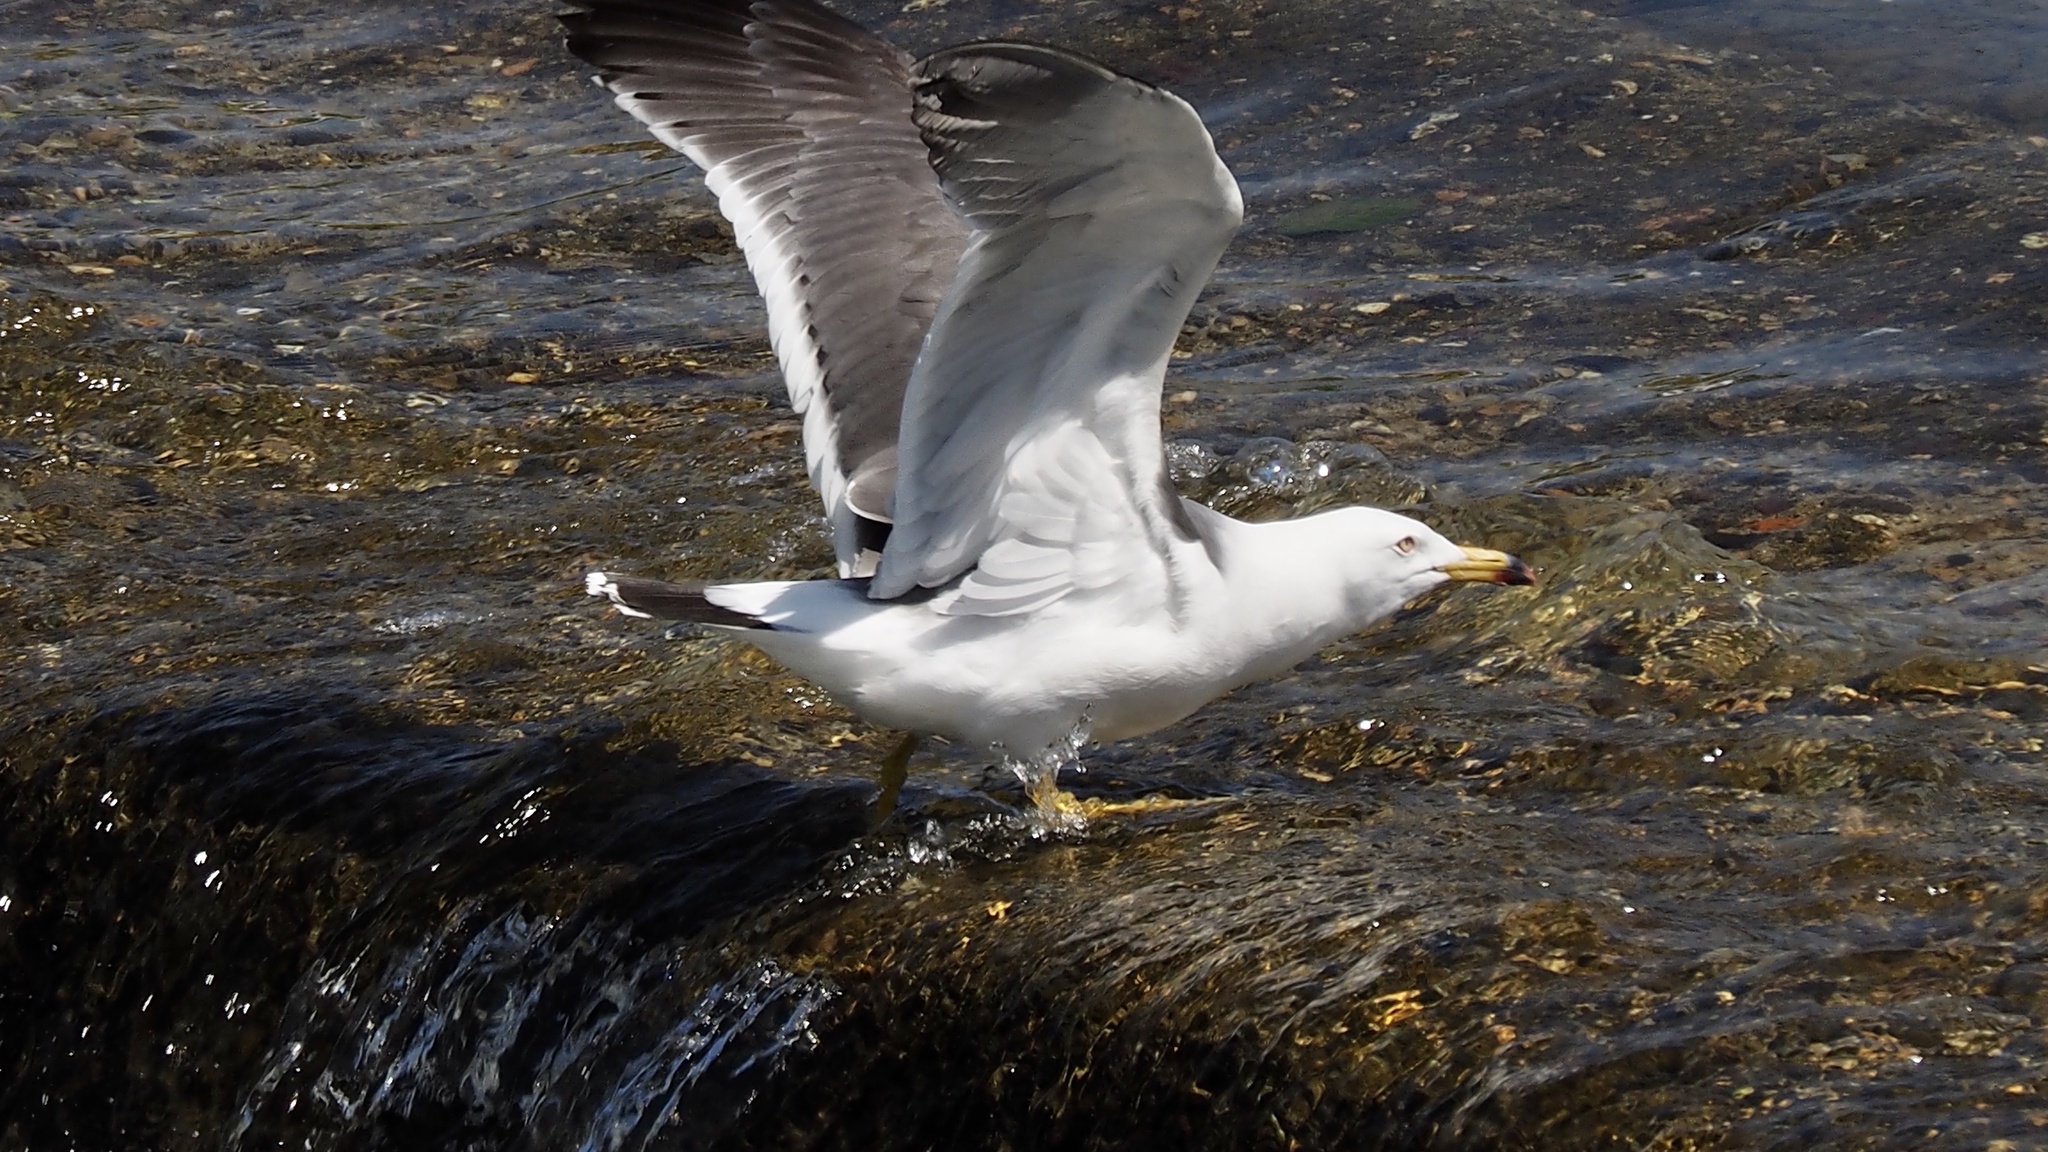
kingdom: Animalia
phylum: Chordata
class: Aves
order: Charadriiformes
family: Laridae
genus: Larus
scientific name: Larus crassirostris
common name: Black-tailed gull
